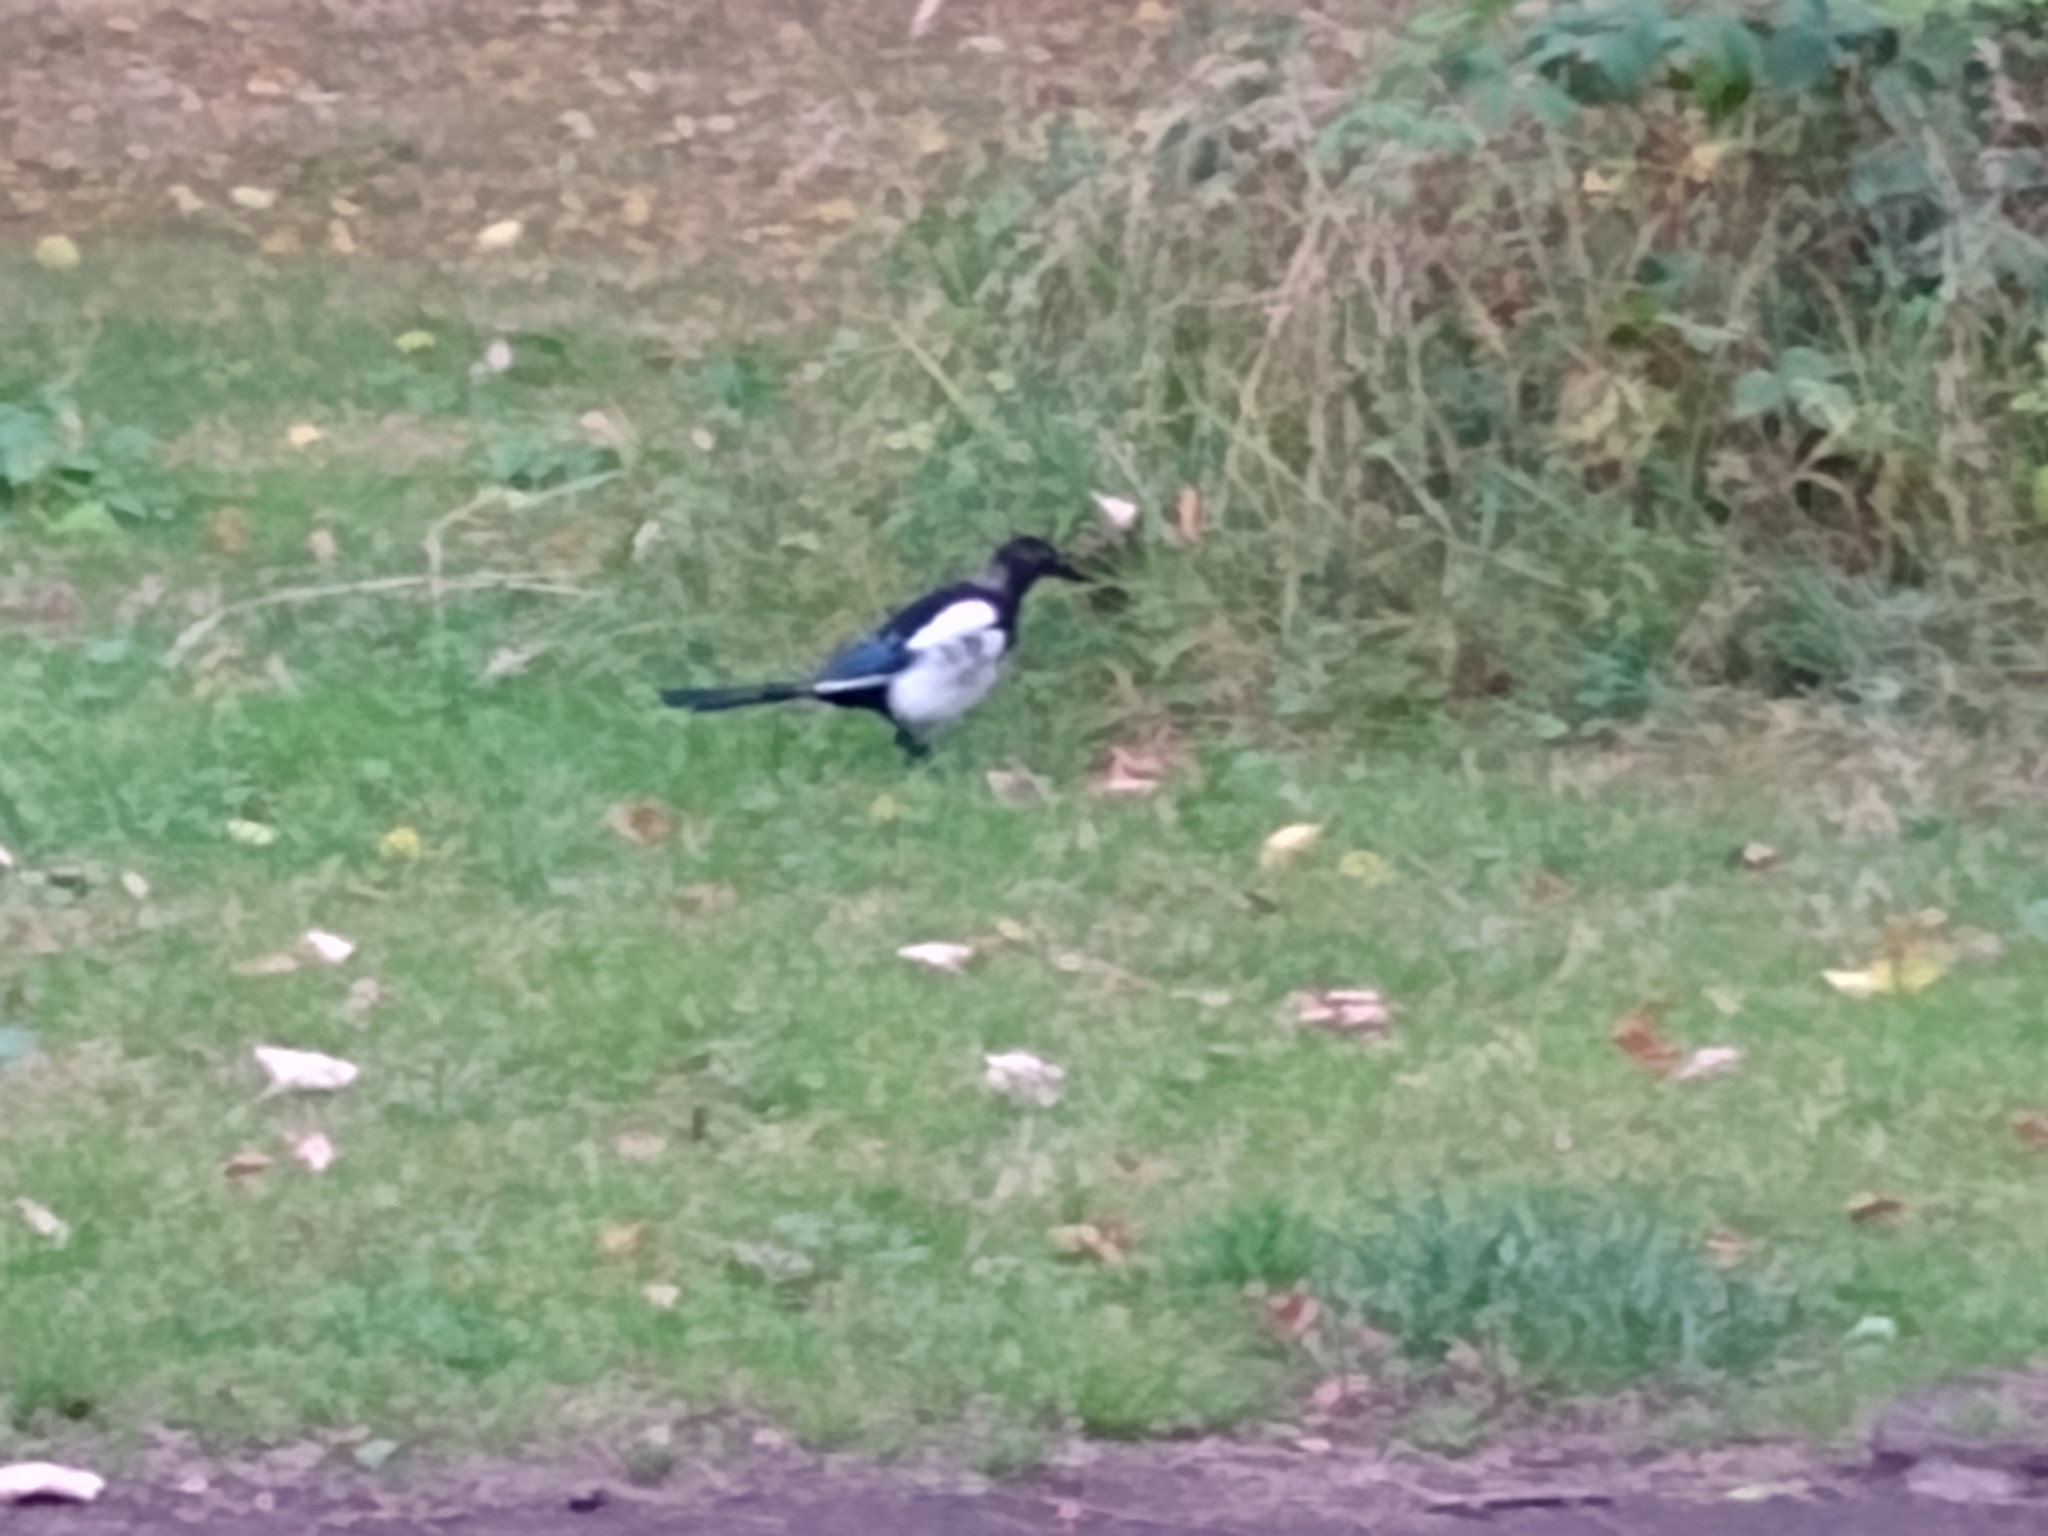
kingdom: Animalia
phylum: Chordata
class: Aves
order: Passeriformes
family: Corvidae
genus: Pica
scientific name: Pica pica
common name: Eurasian magpie
